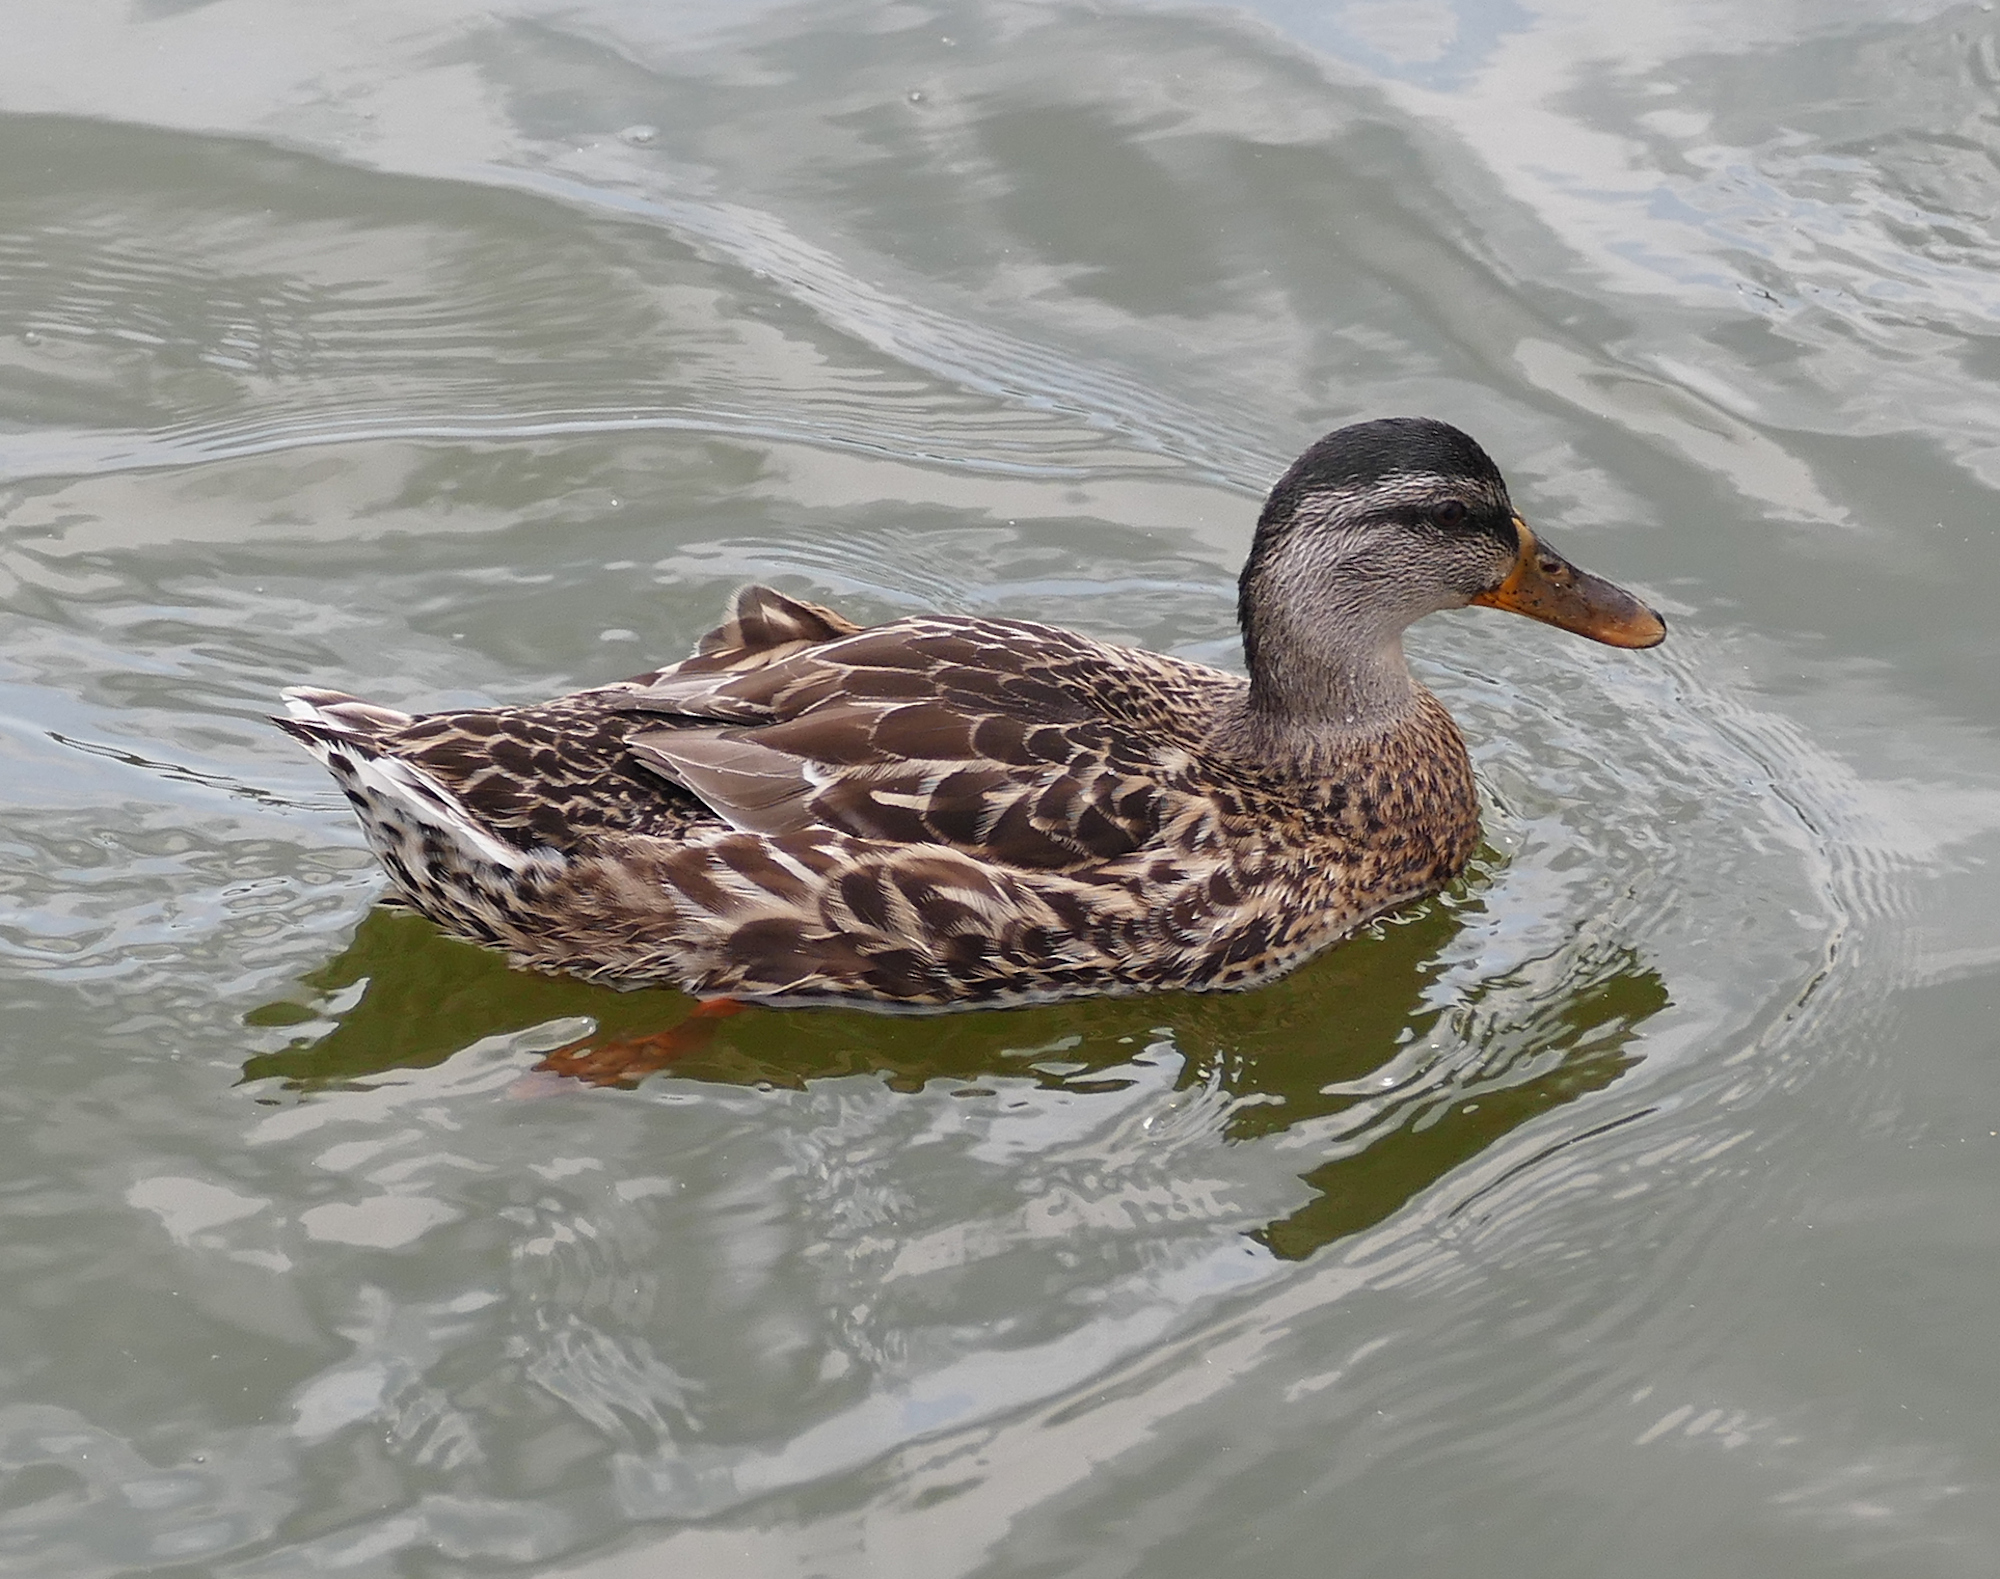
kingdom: Animalia
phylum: Chordata
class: Aves
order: Anseriformes
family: Anatidae
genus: Anas
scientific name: Anas platyrhynchos
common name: Mallard
